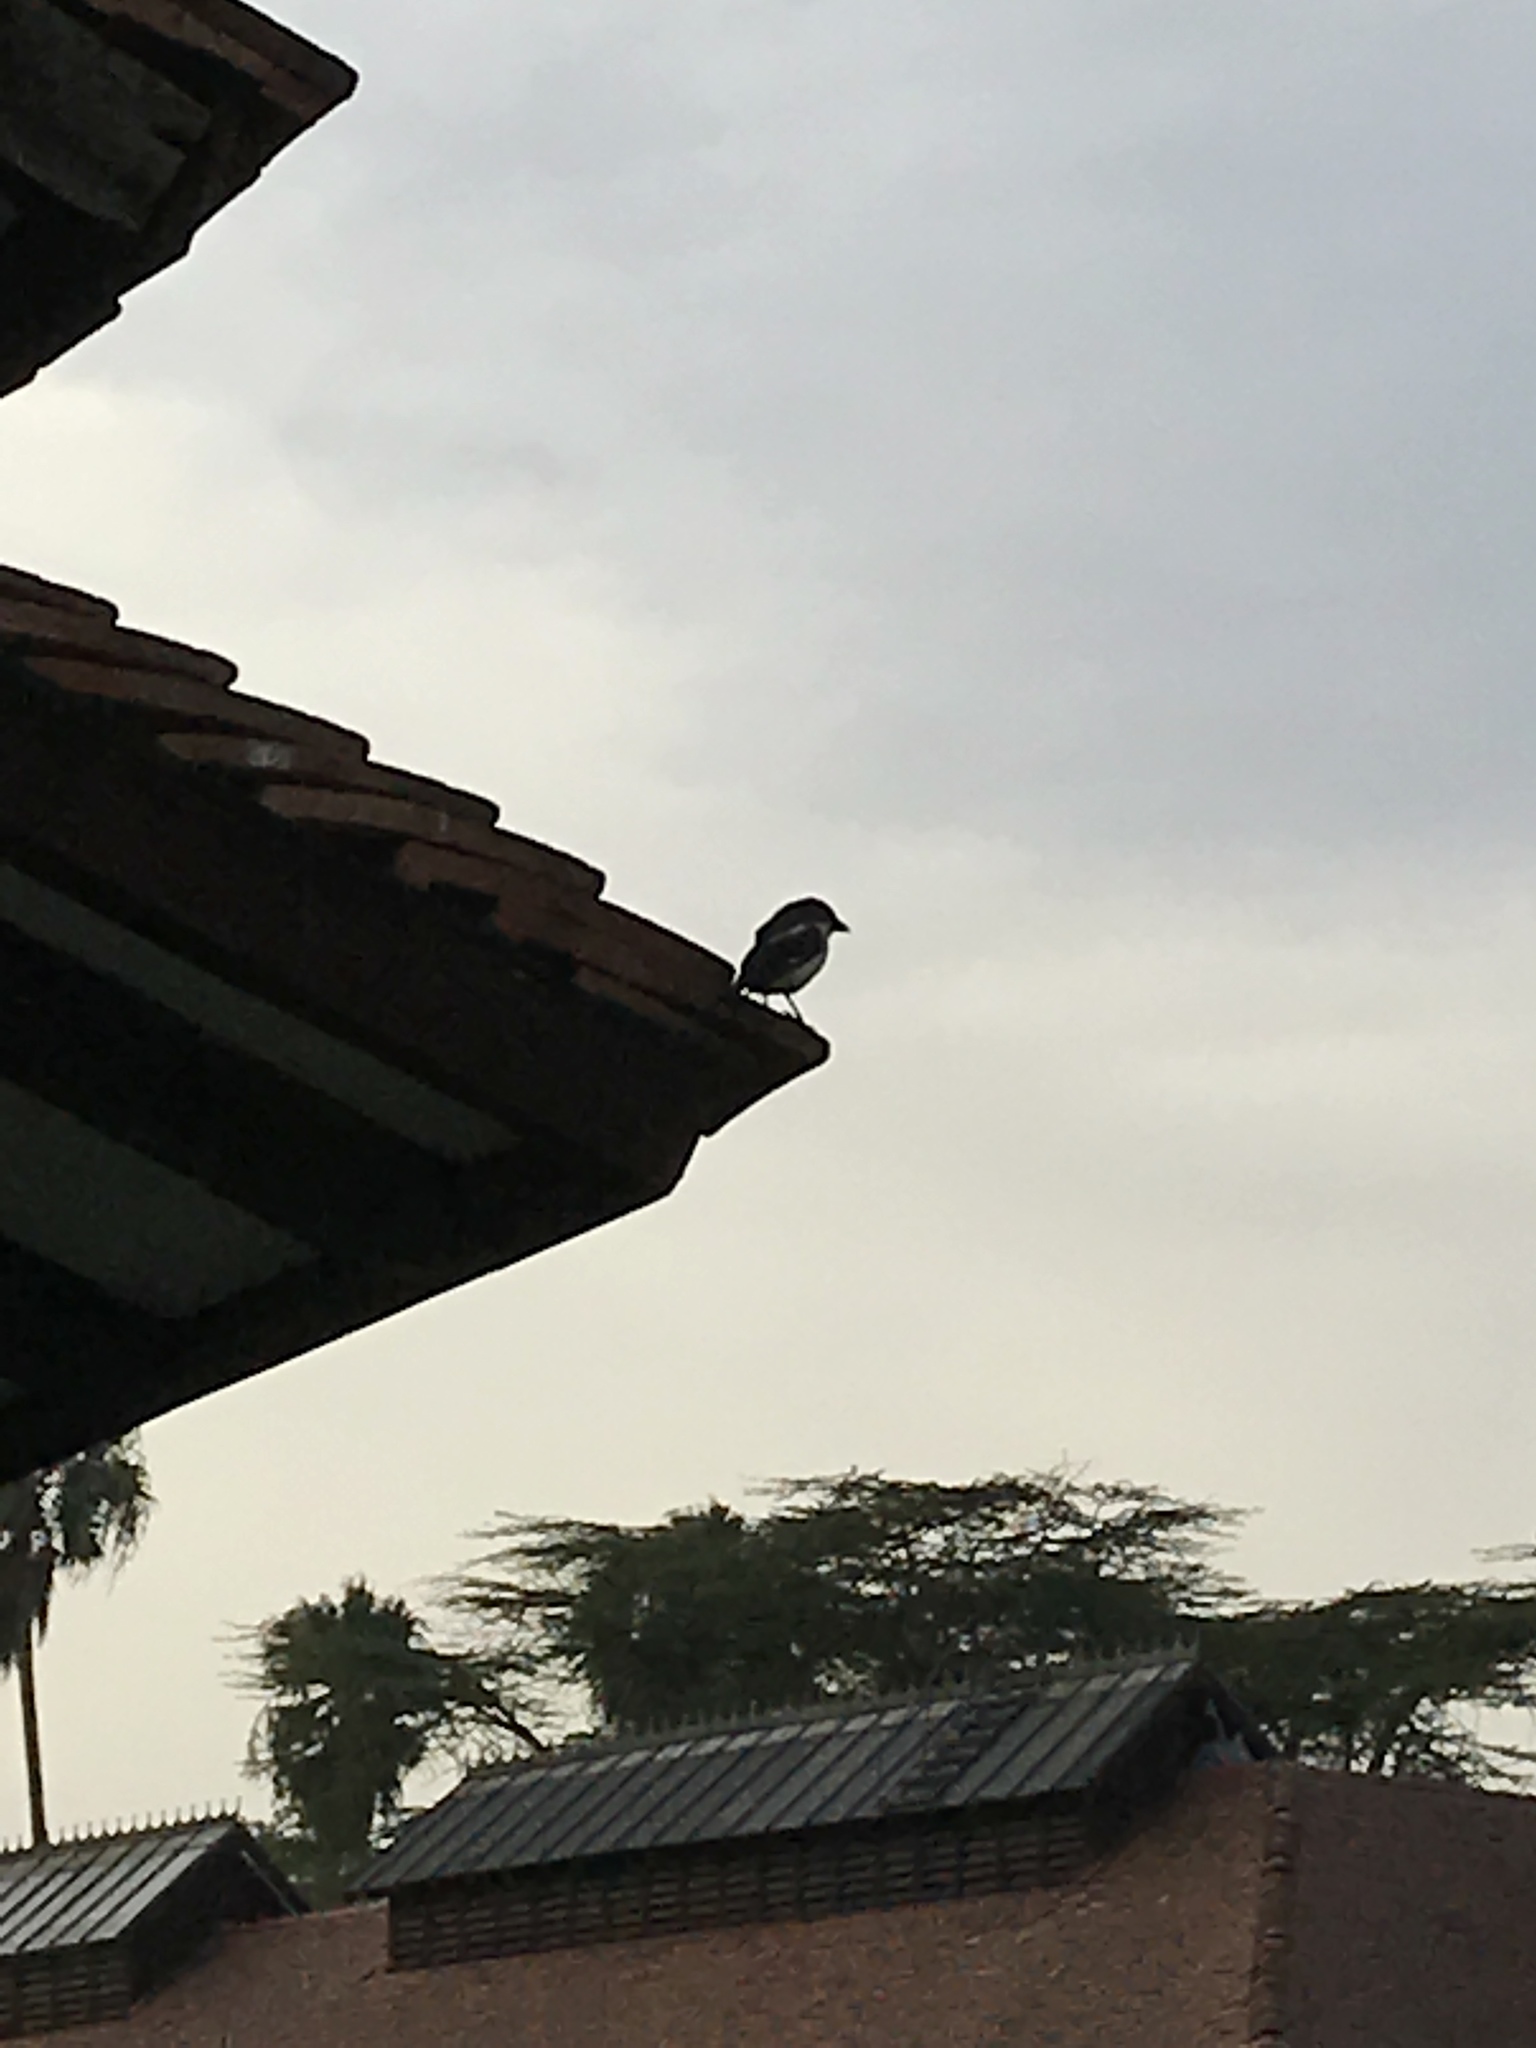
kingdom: Animalia
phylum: Chordata
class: Aves
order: Passeriformes
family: Laniidae
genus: Lanius
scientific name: Lanius humeralis
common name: Northern fiscal
